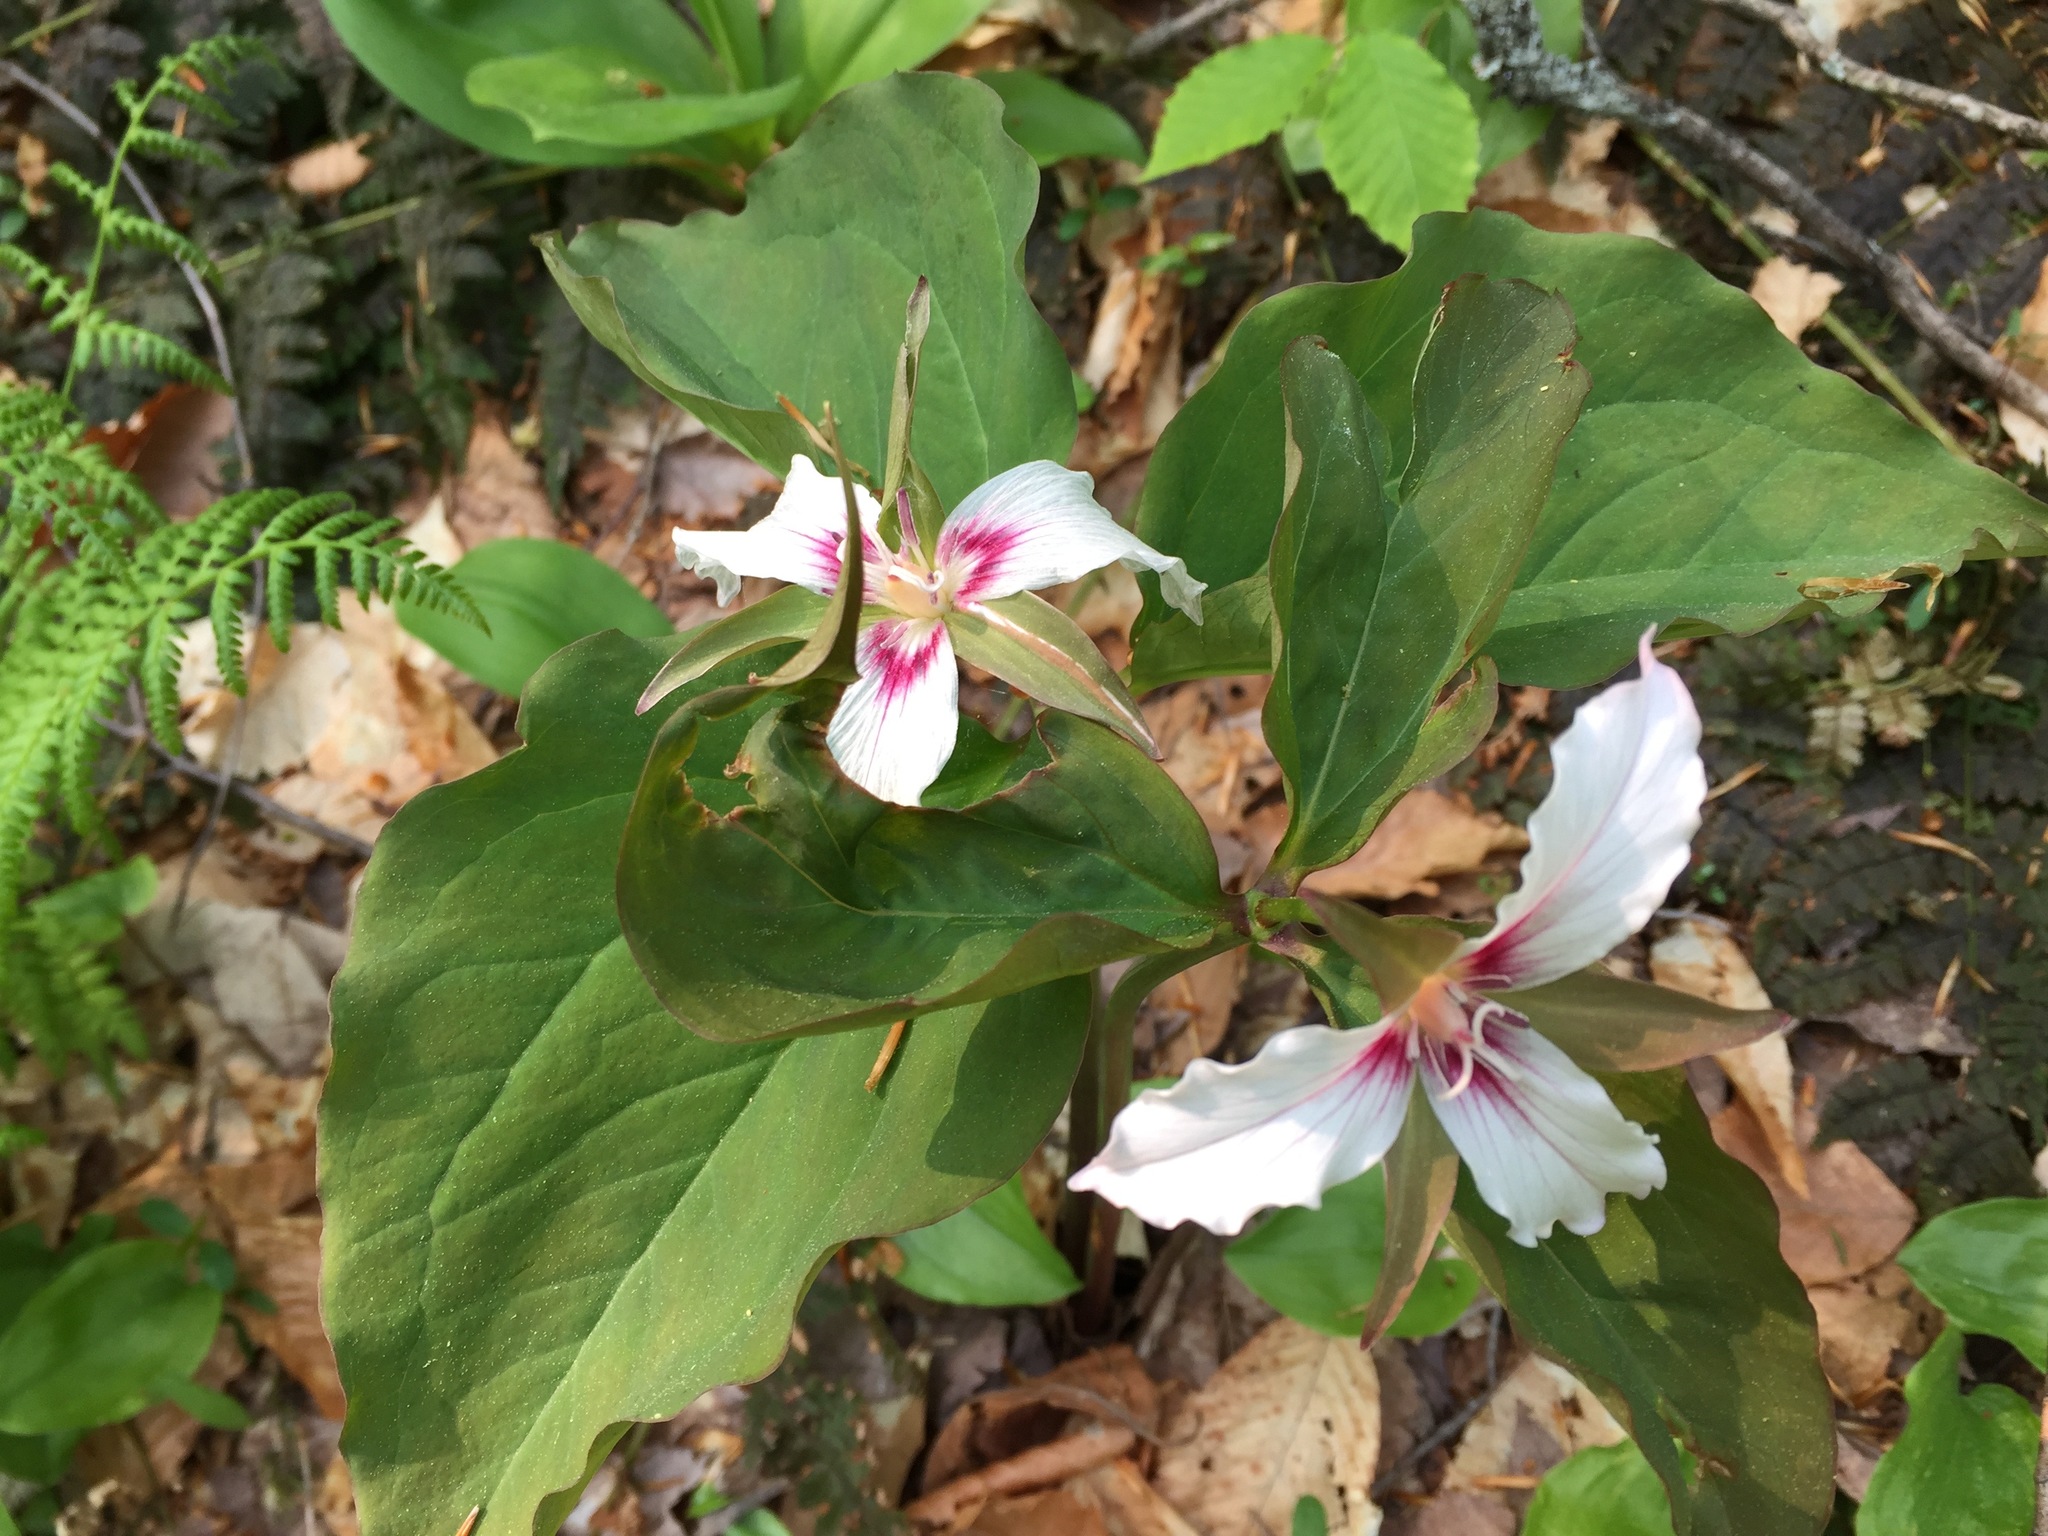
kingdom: Plantae
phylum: Tracheophyta
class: Liliopsida
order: Liliales
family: Melanthiaceae
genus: Trillium
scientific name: Trillium undulatum
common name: Paint trillium
